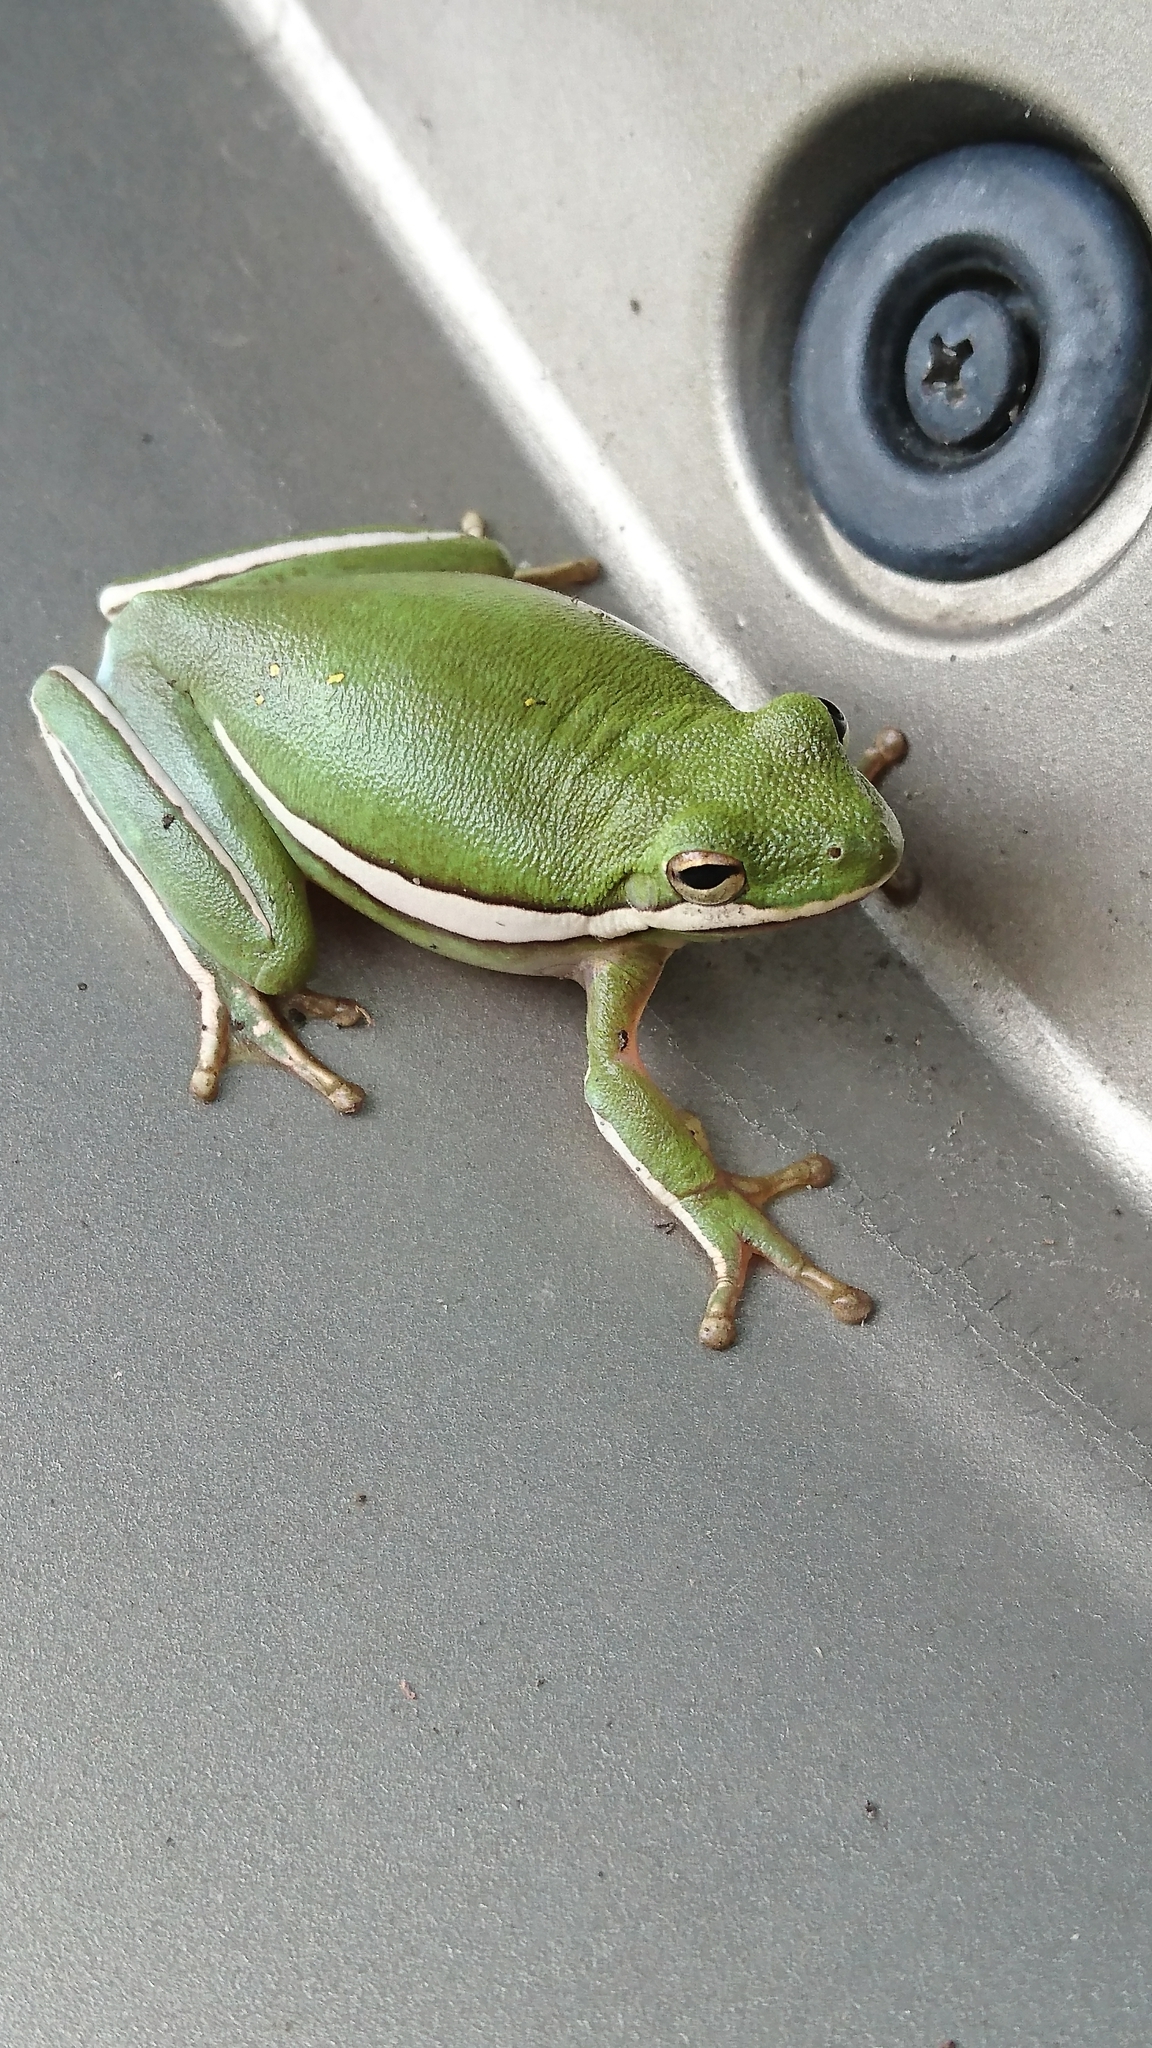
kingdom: Animalia
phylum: Chordata
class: Amphibia
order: Anura
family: Hylidae
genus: Dryophytes
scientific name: Dryophytes cinereus
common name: Green treefrog
